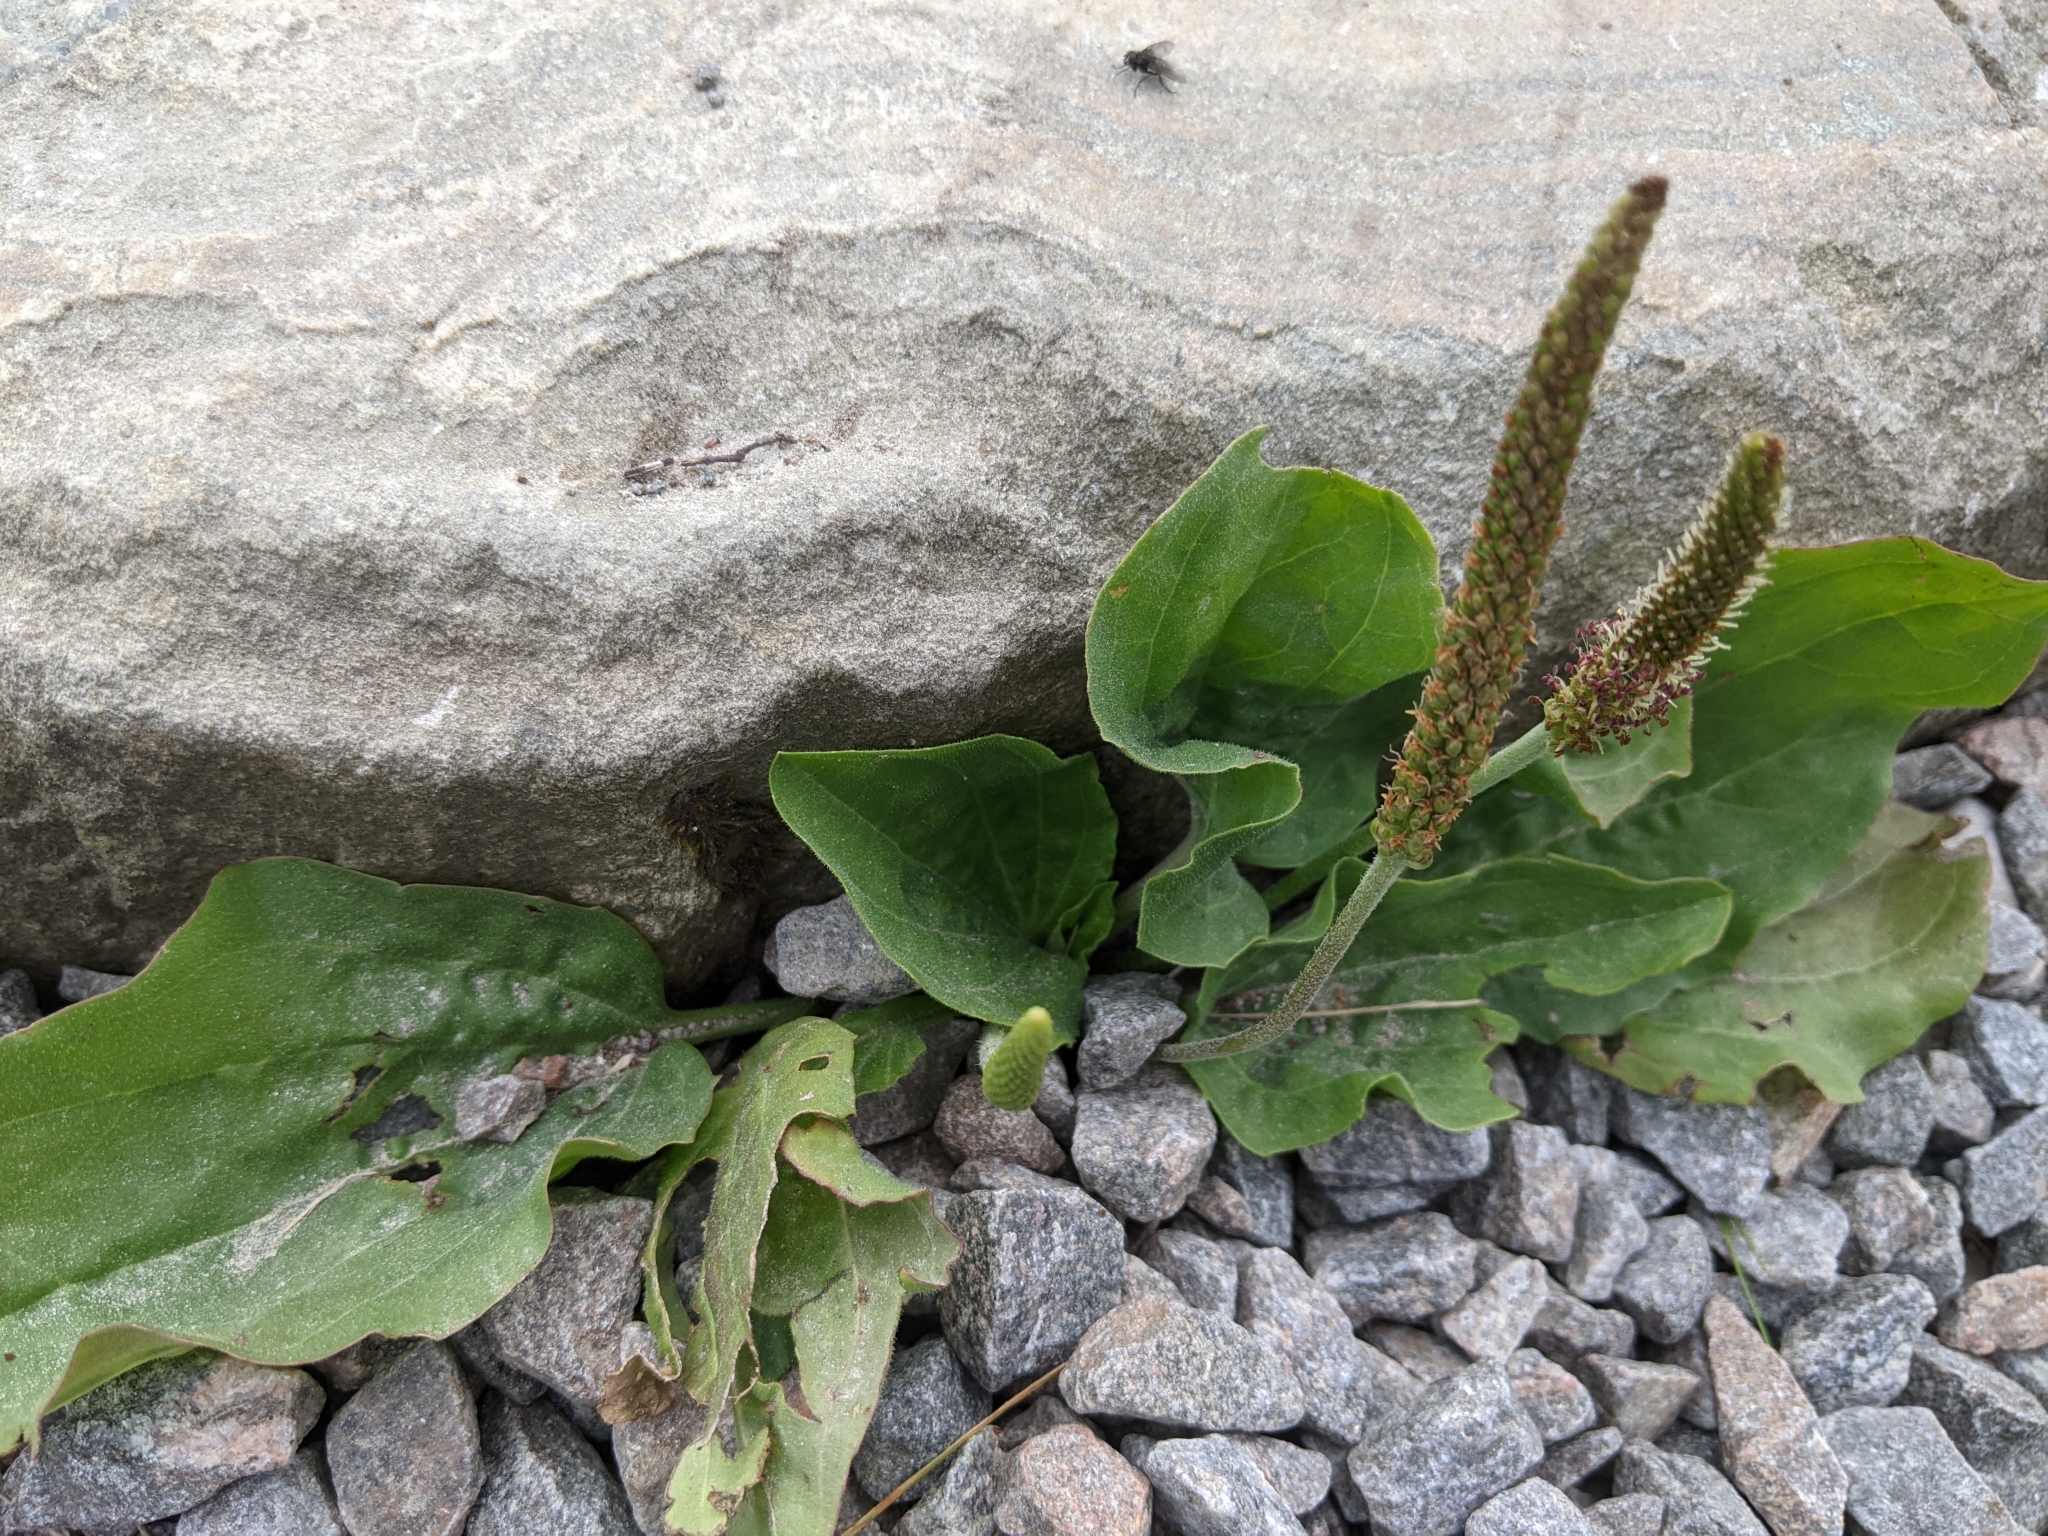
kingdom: Plantae
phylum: Tracheophyta
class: Magnoliopsida
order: Lamiales
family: Plantaginaceae
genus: Plantago
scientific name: Plantago major
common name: Common plantain
